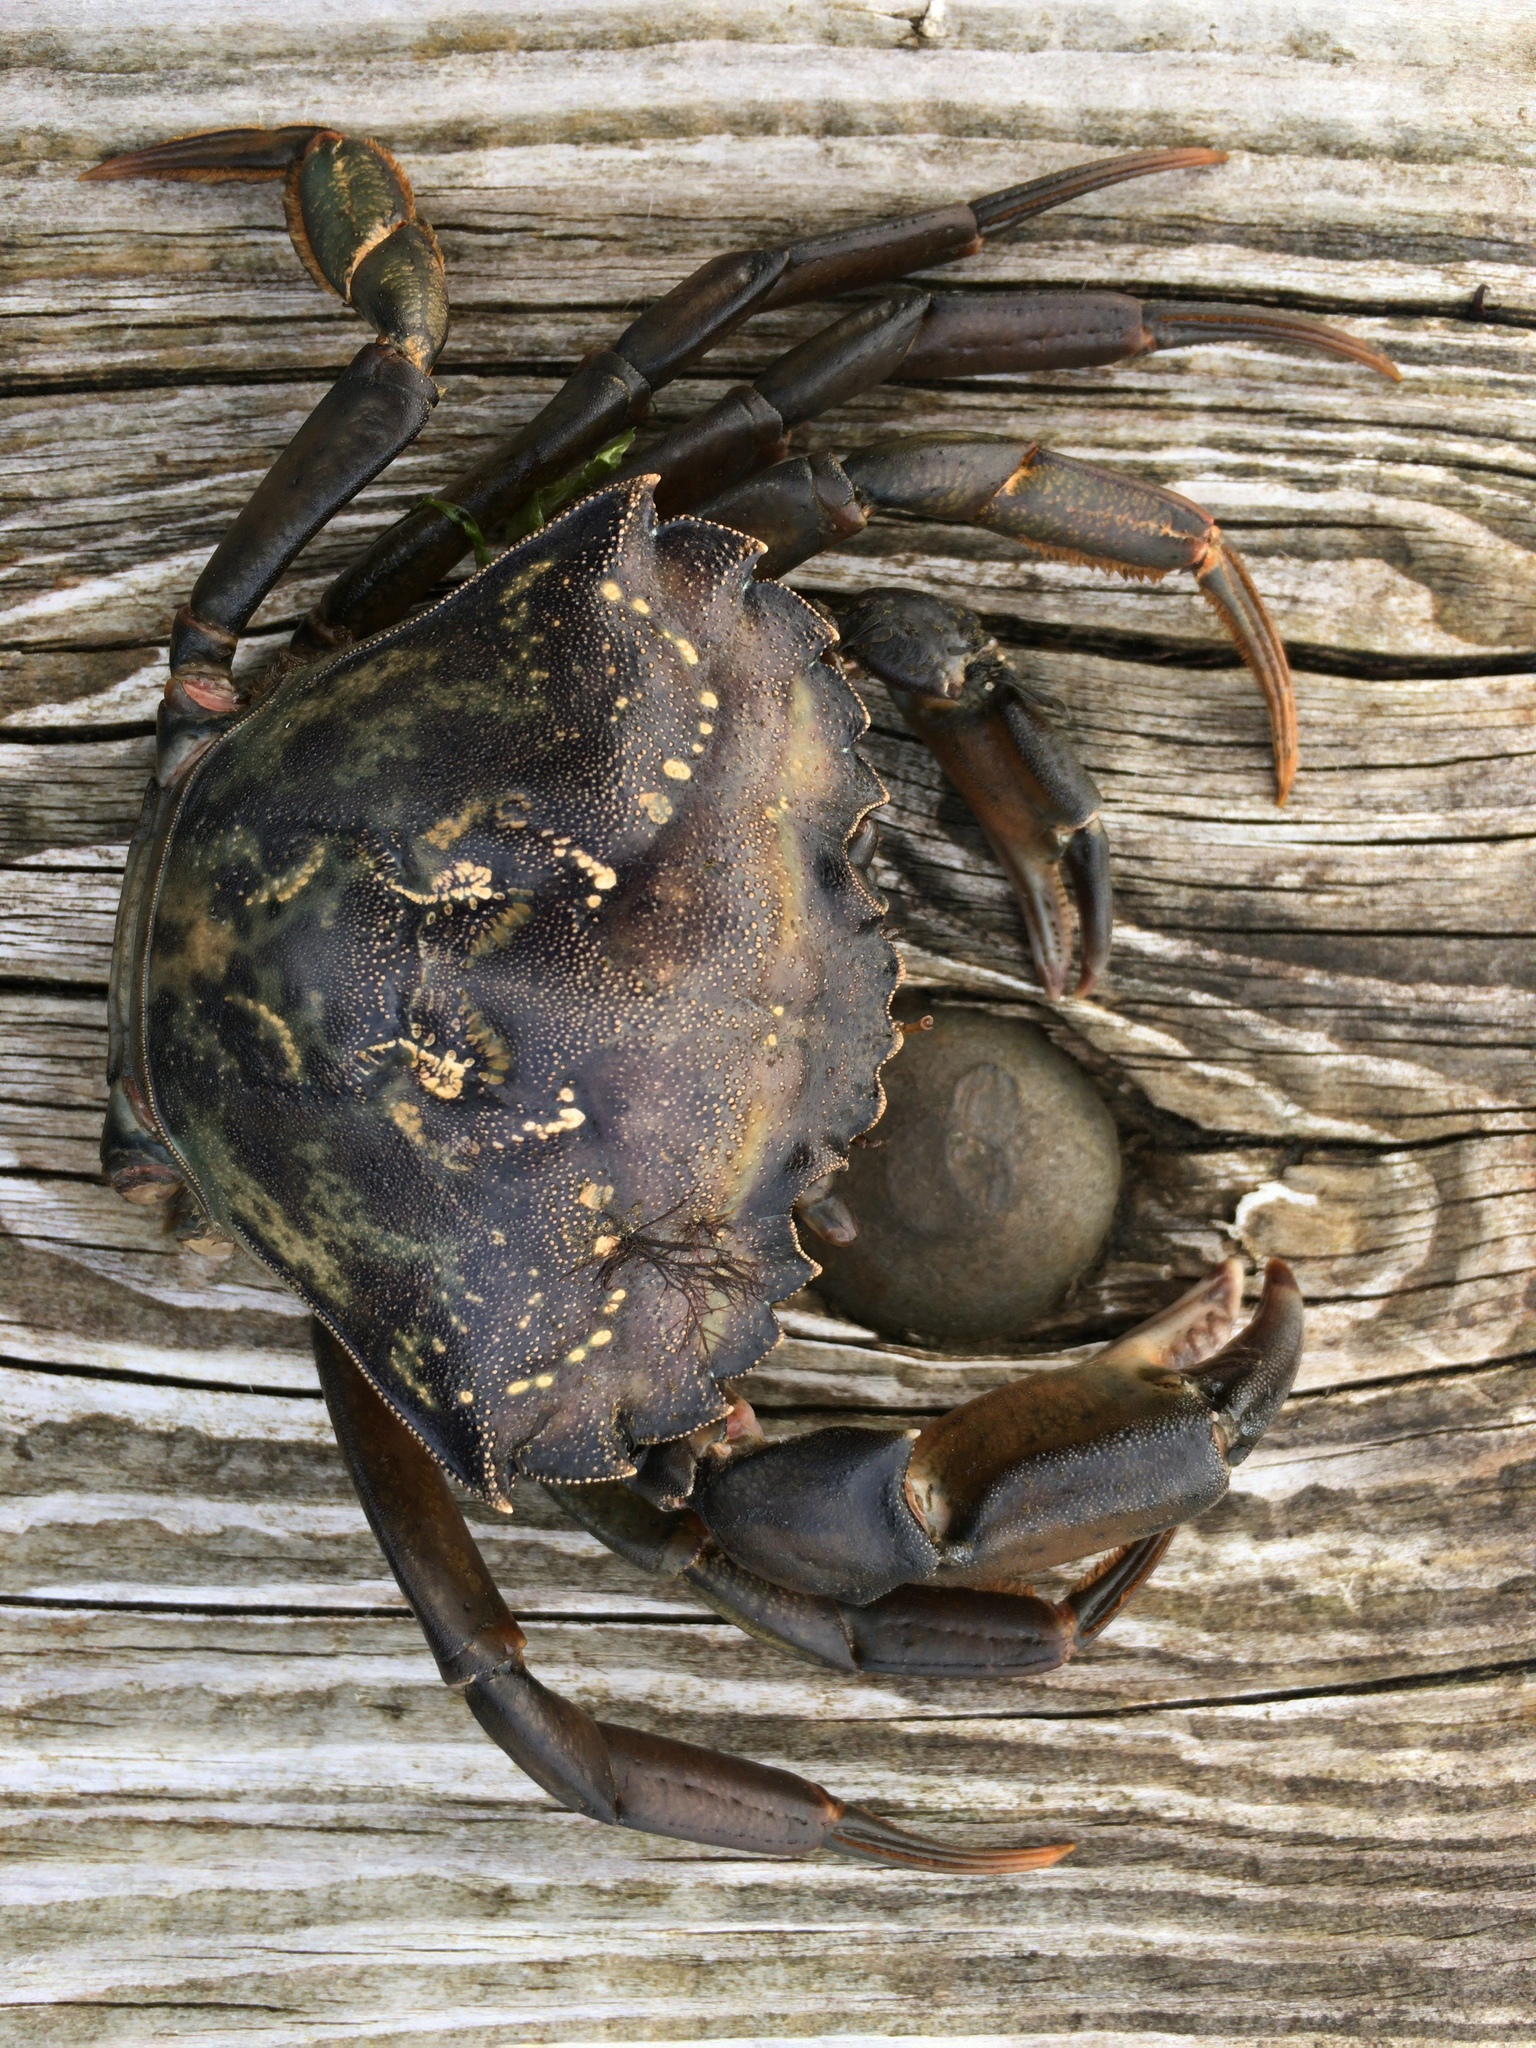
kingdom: Animalia
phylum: Arthropoda
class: Malacostraca
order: Decapoda
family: Carcinidae
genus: Carcinus
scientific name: Carcinus maenas
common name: European green crab
